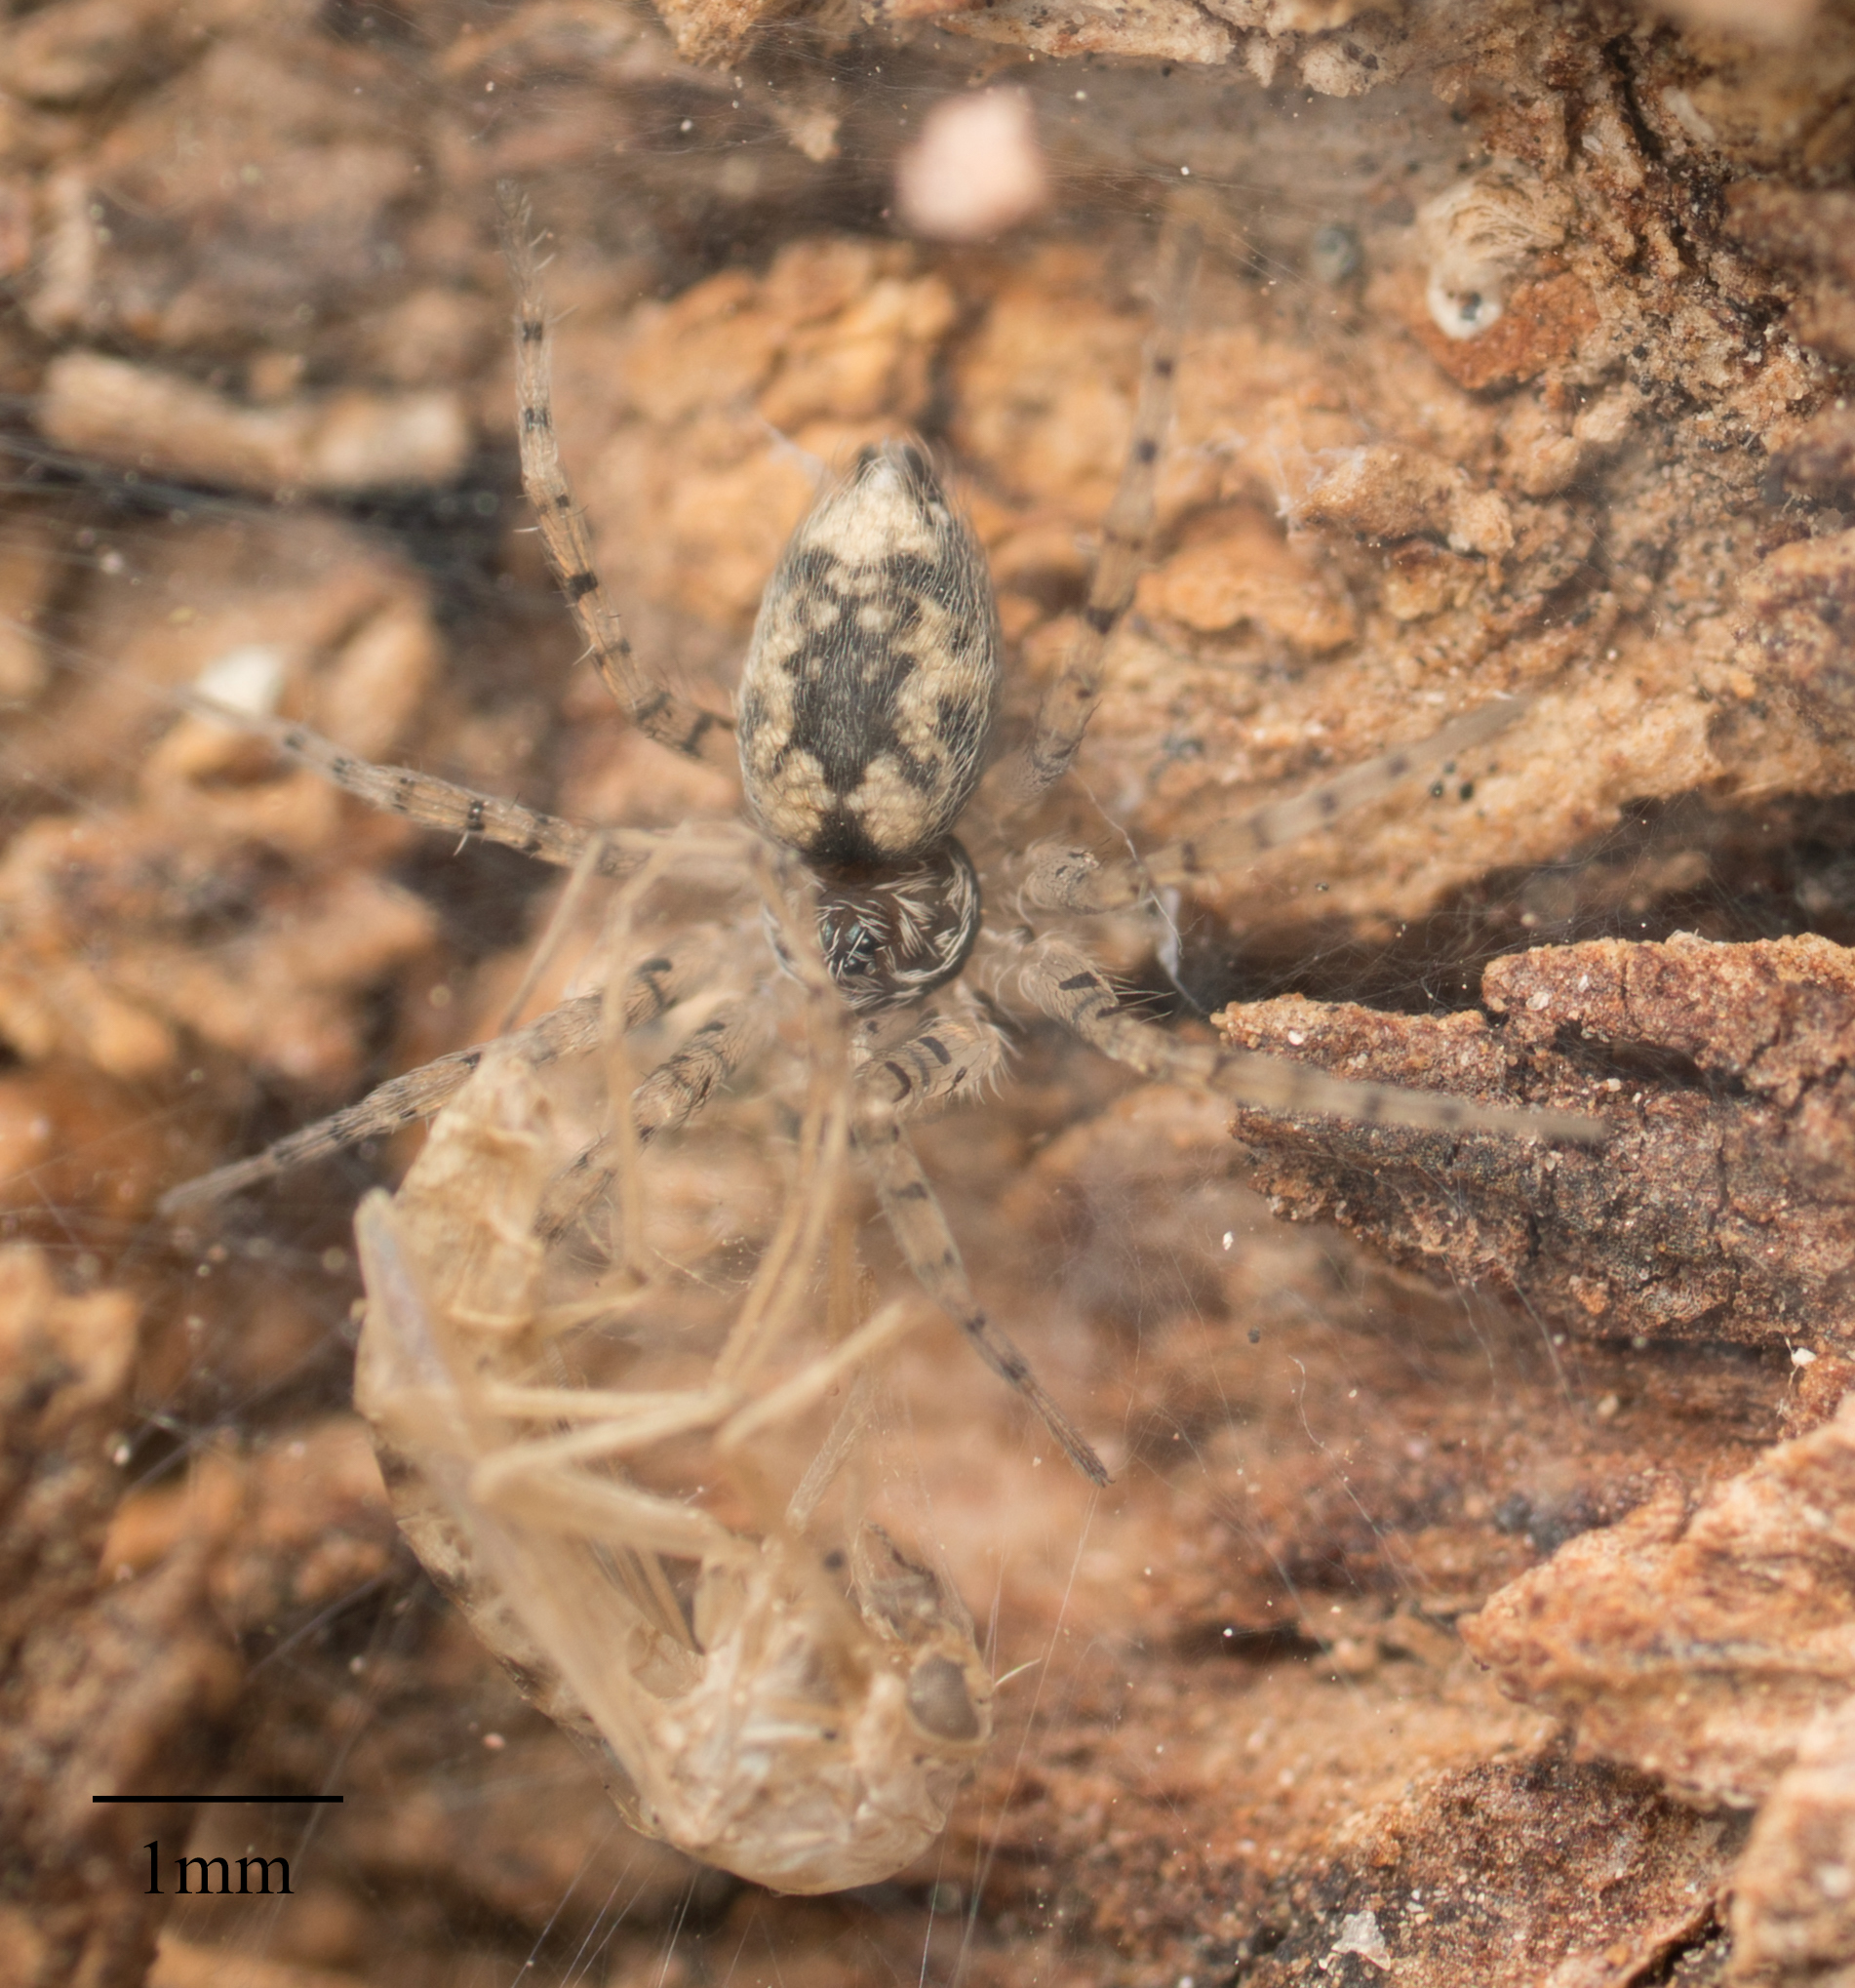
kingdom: Animalia
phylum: Arthropoda
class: Arachnida
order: Araneae
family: Oecobiidae
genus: Oecobius
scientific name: Oecobius
